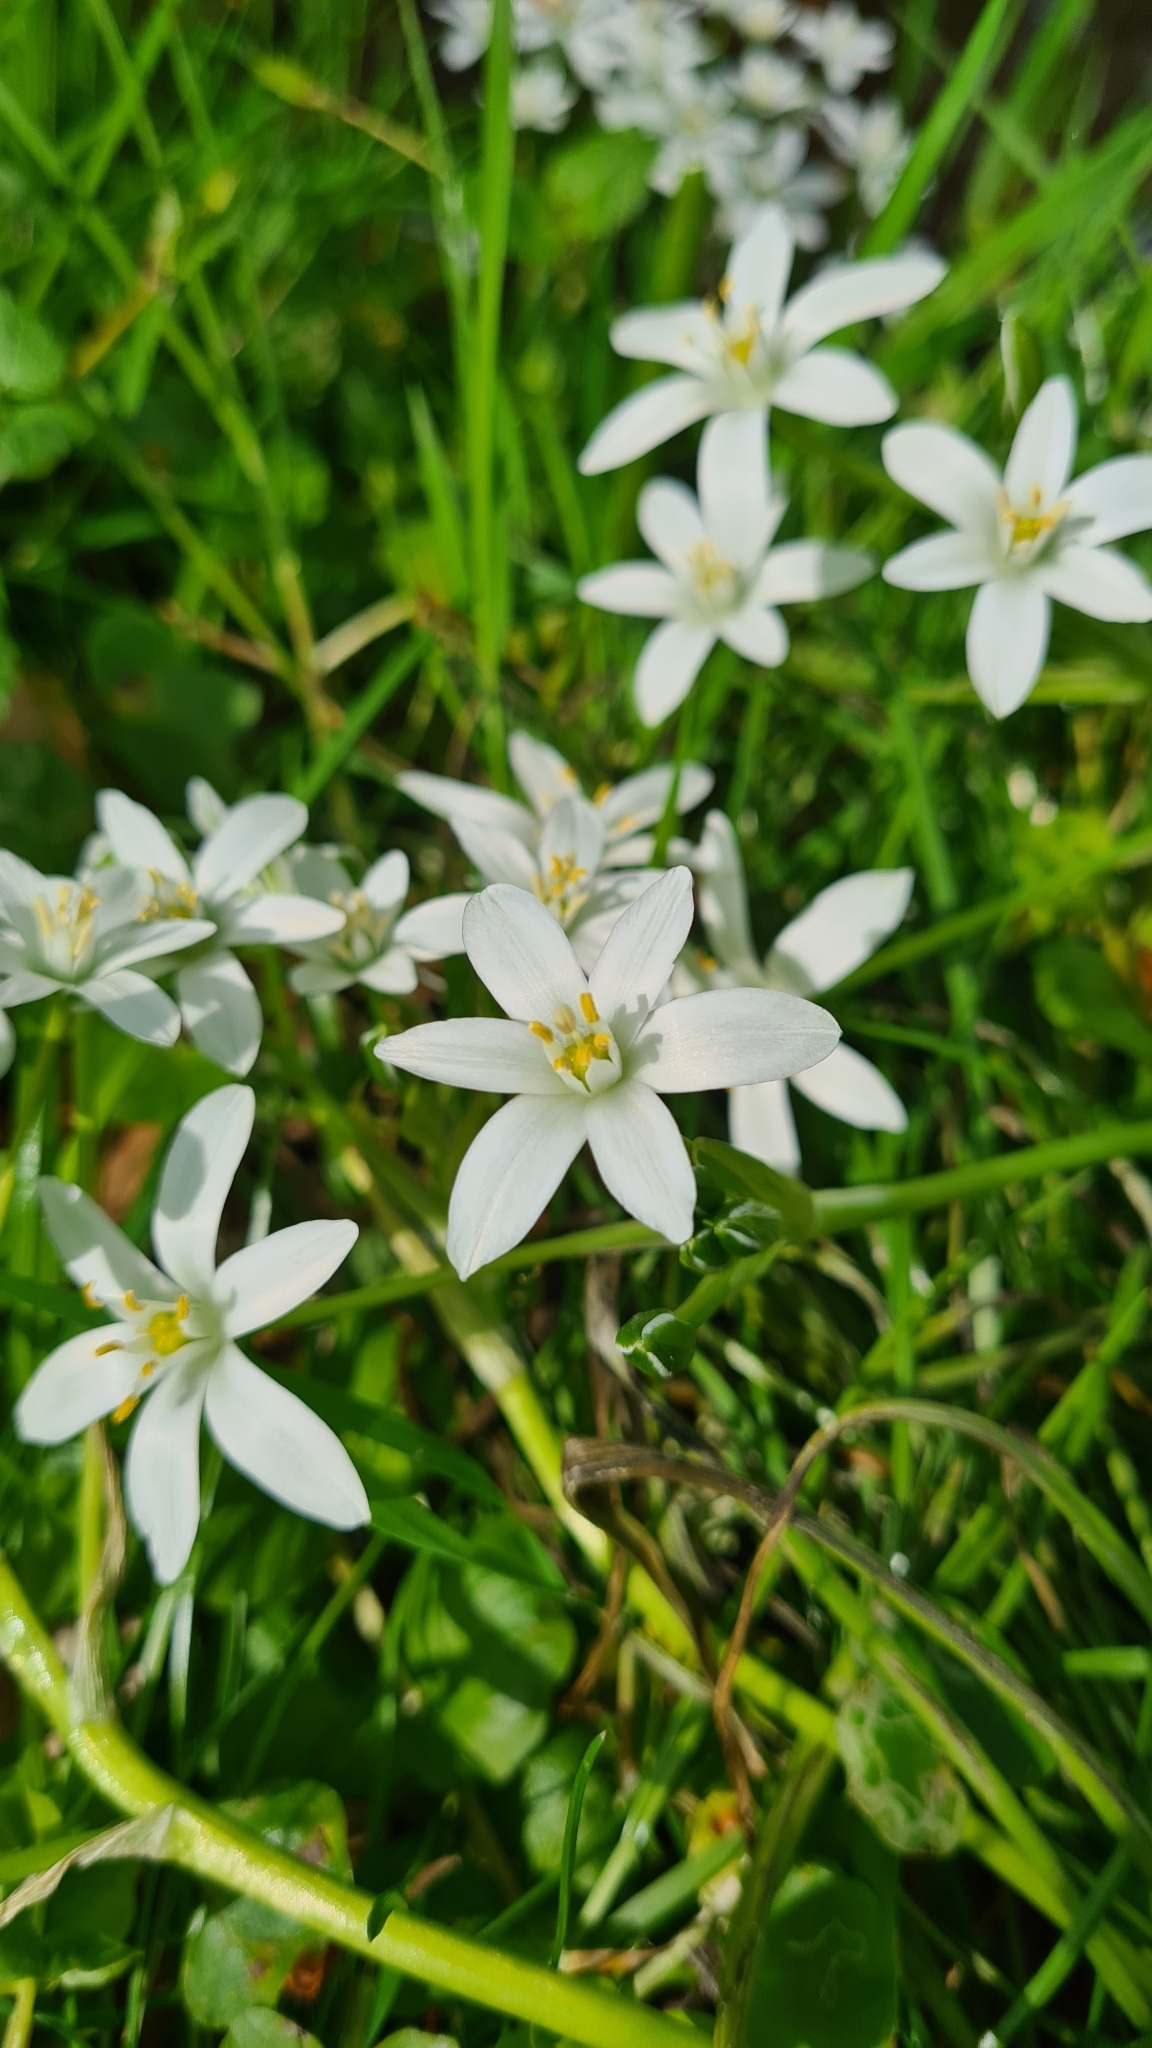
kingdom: Plantae
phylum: Tracheophyta
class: Liliopsida
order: Asparagales
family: Asparagaceae
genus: Ornithogalum
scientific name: Ornithogalum umbellatum
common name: Garden star-of-bethlehem
